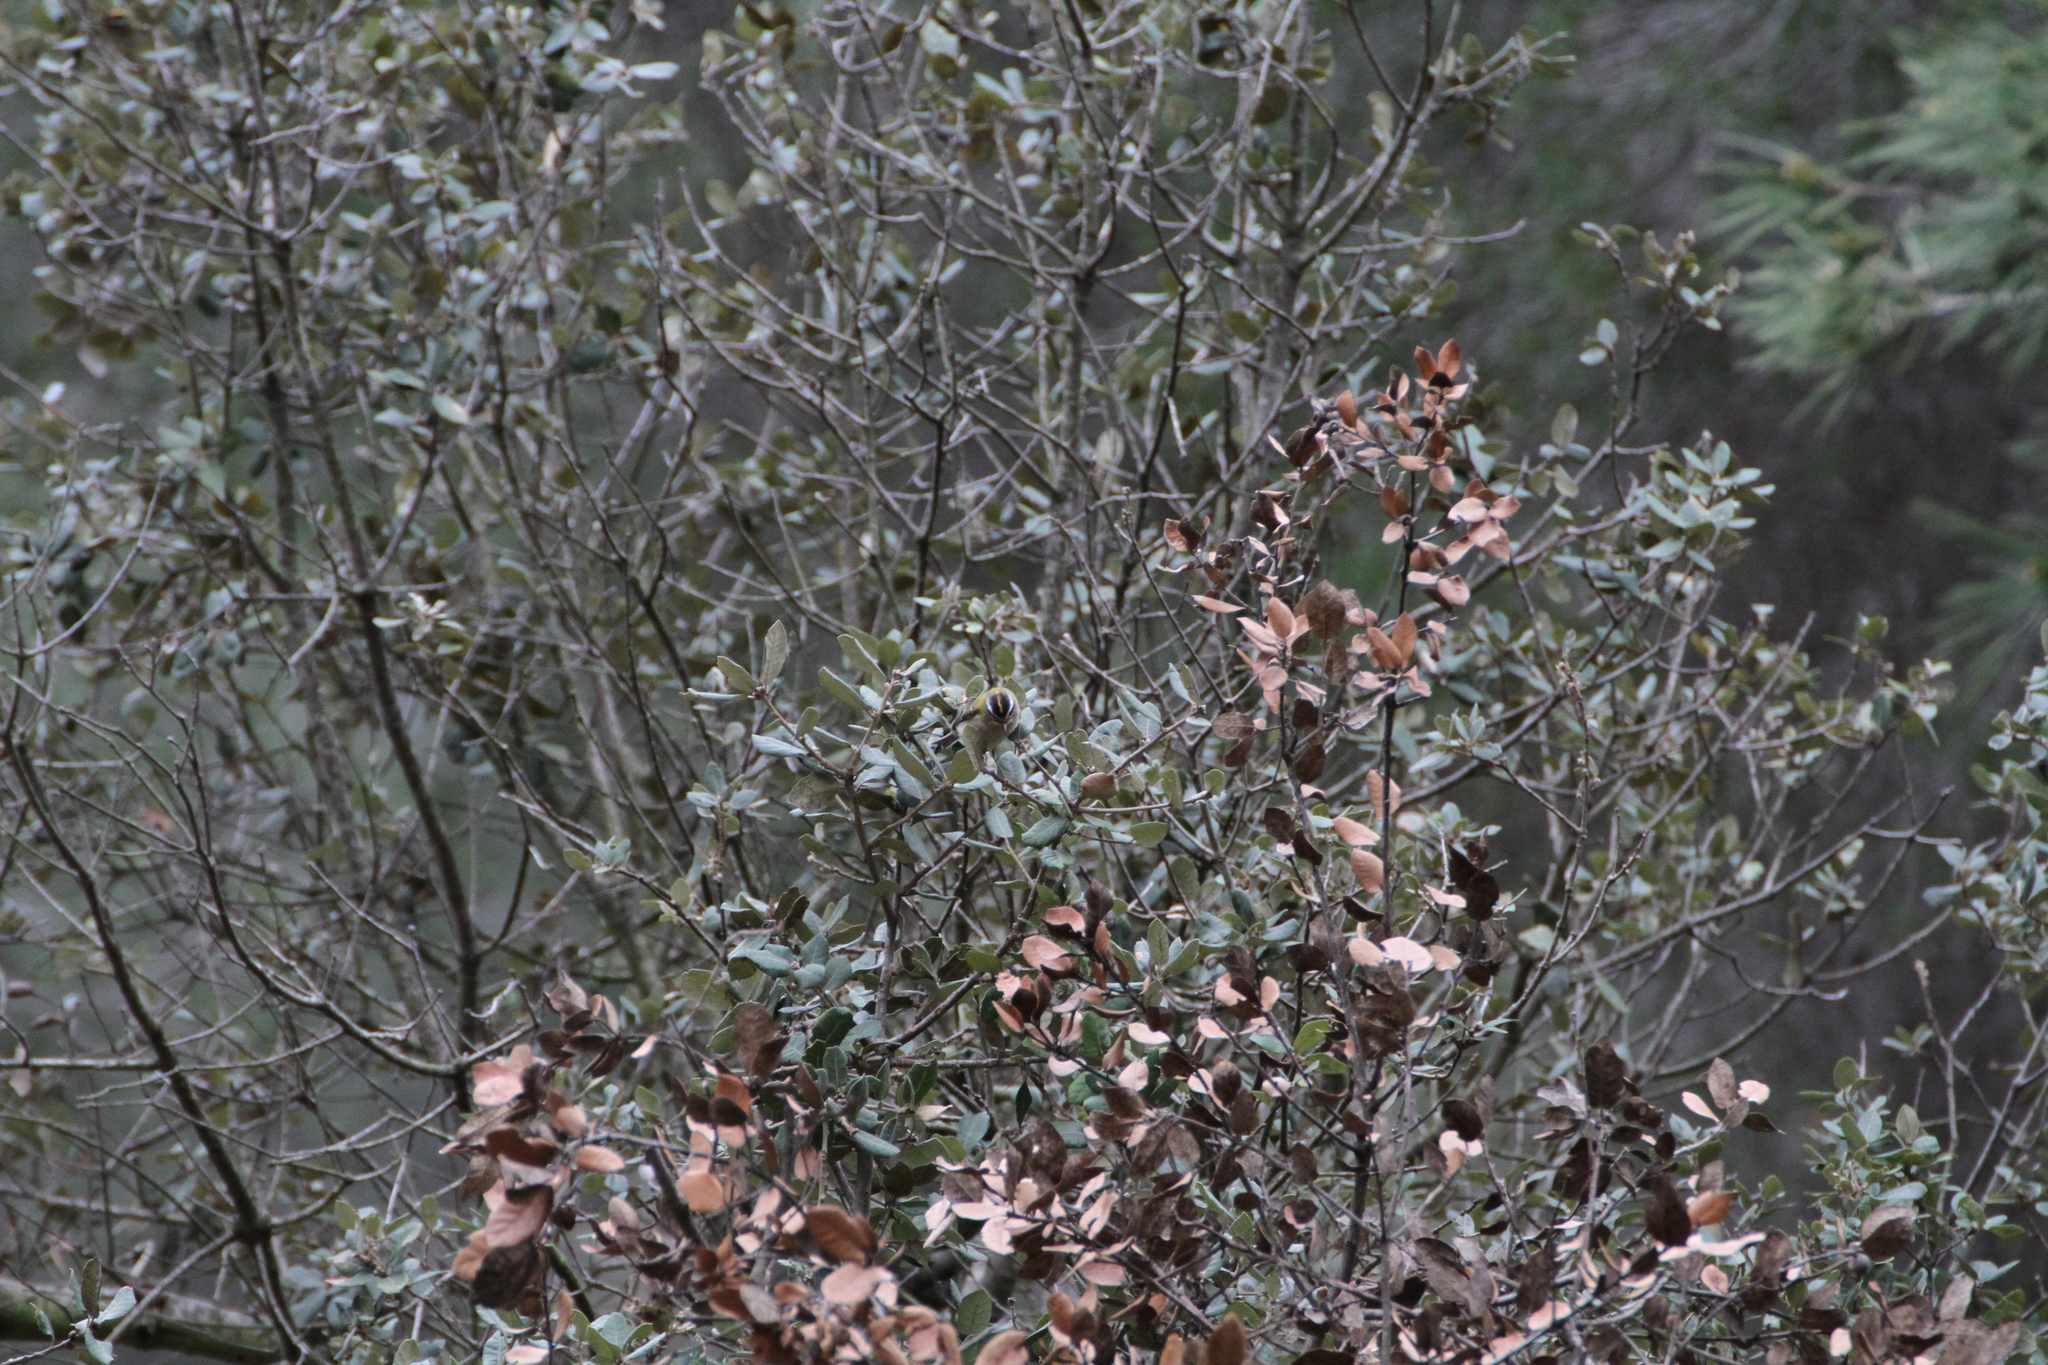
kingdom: Animalia
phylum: Chordata
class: Aves
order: Passeriformes
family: Regulidae
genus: Regulus
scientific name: Regulus ignicapilla
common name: Firecrest
